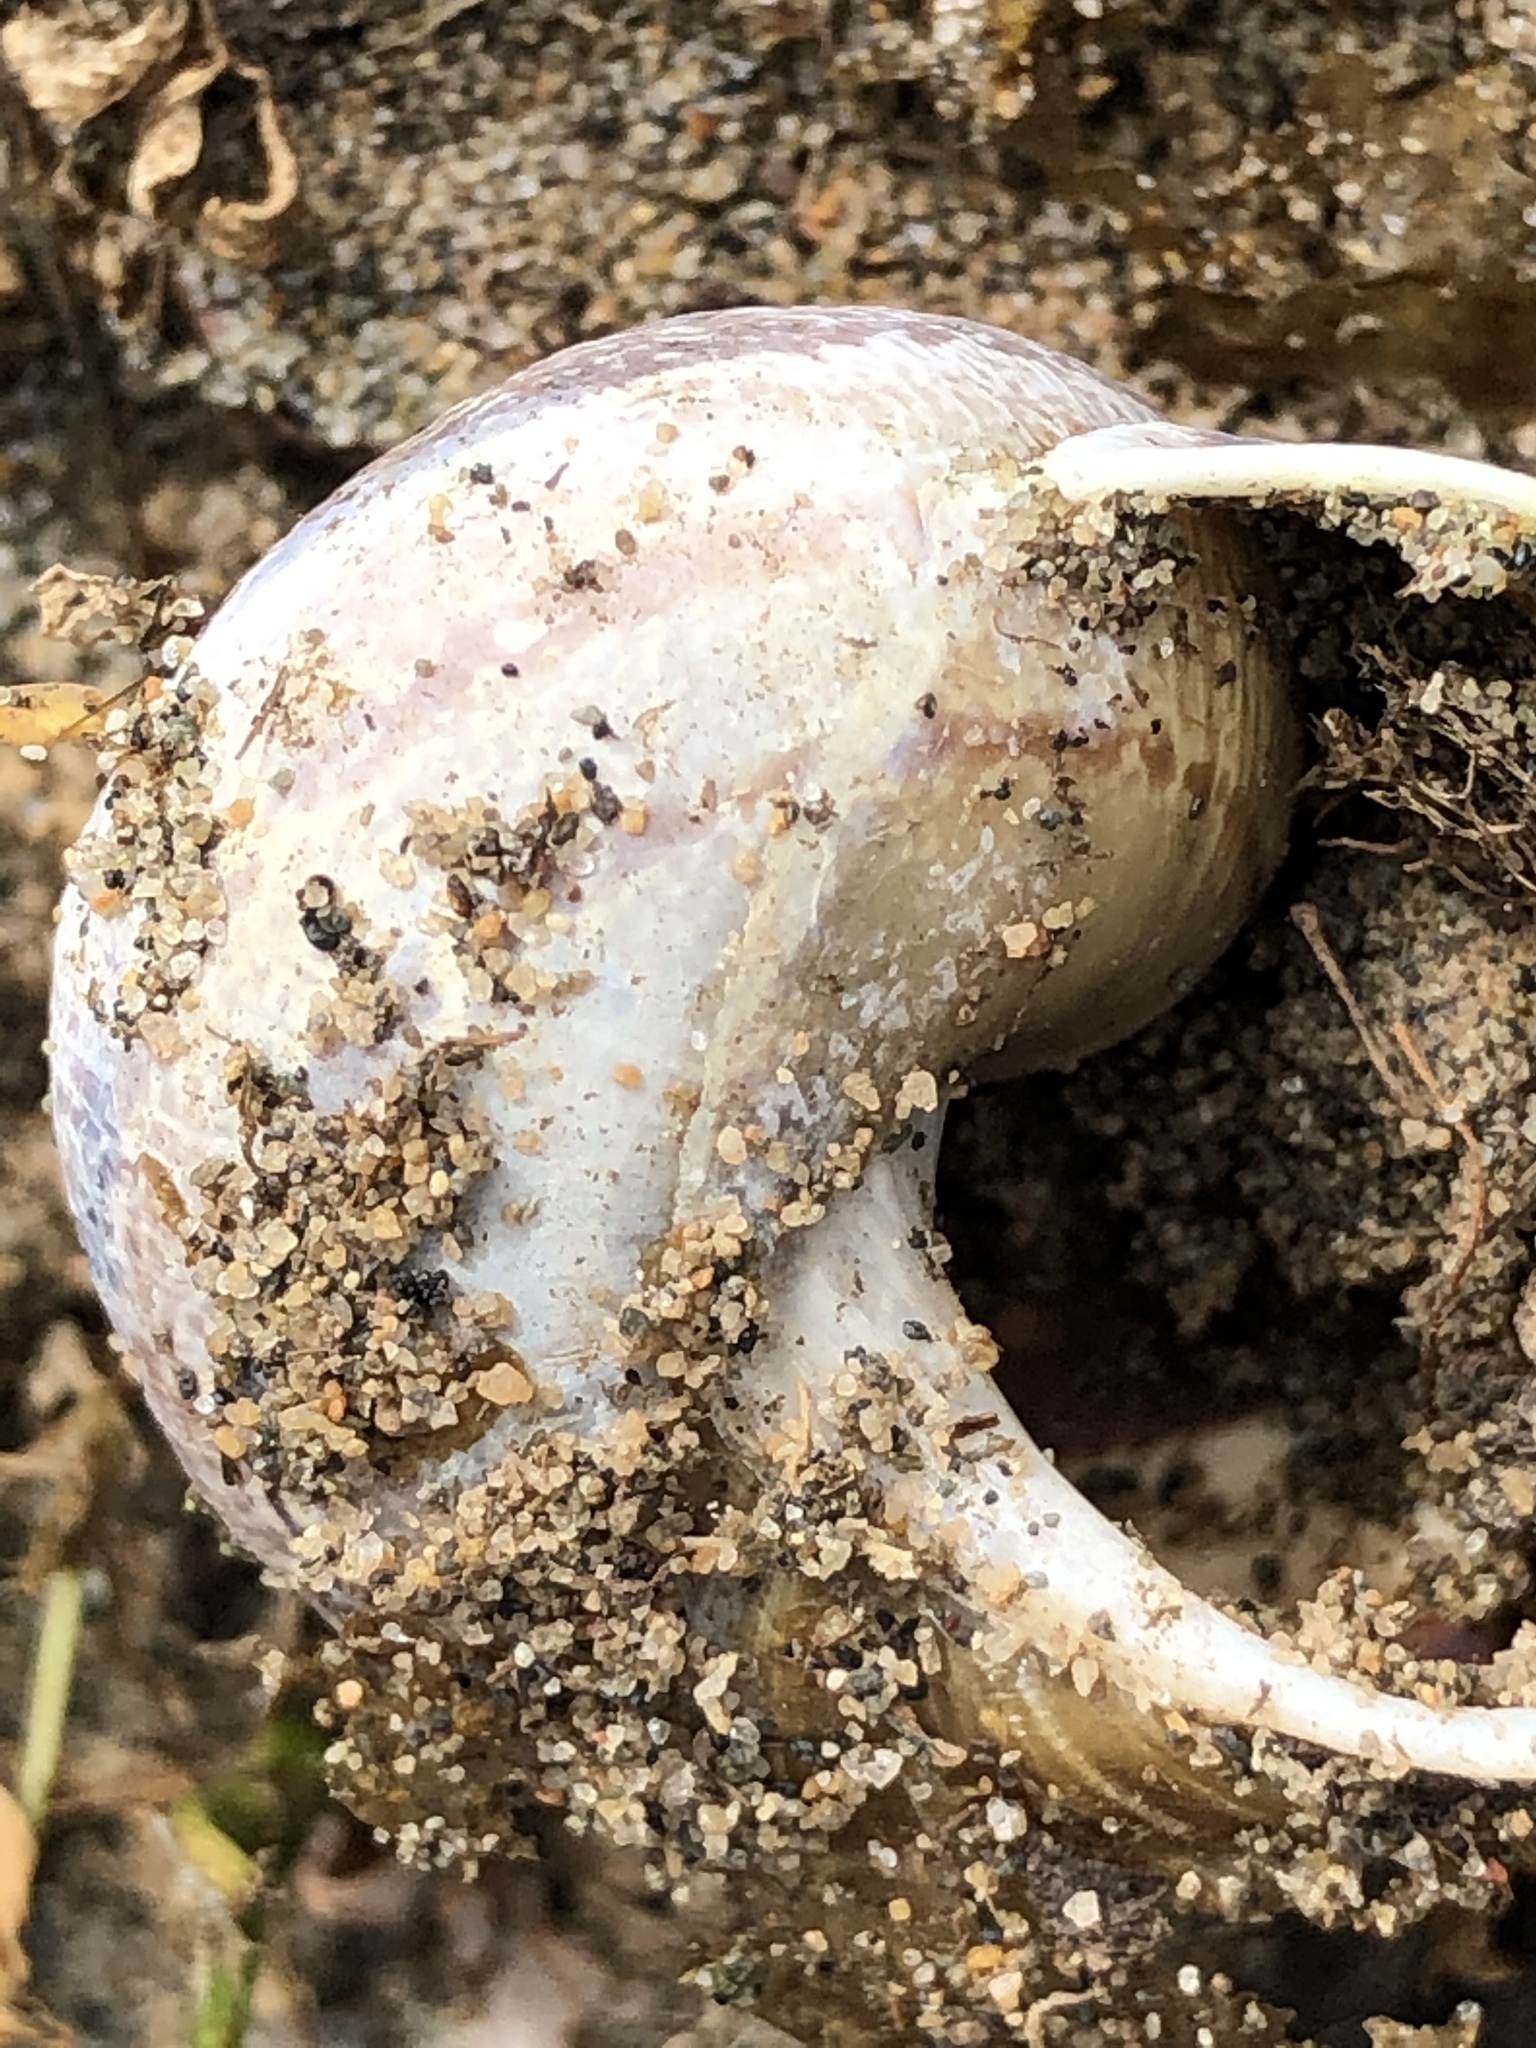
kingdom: Animalia
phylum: Mollusca
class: Gastropoda
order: Stylommatophora
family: Helicidae
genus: Cornu
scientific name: Cornu aspersum
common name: Brown garden snail
